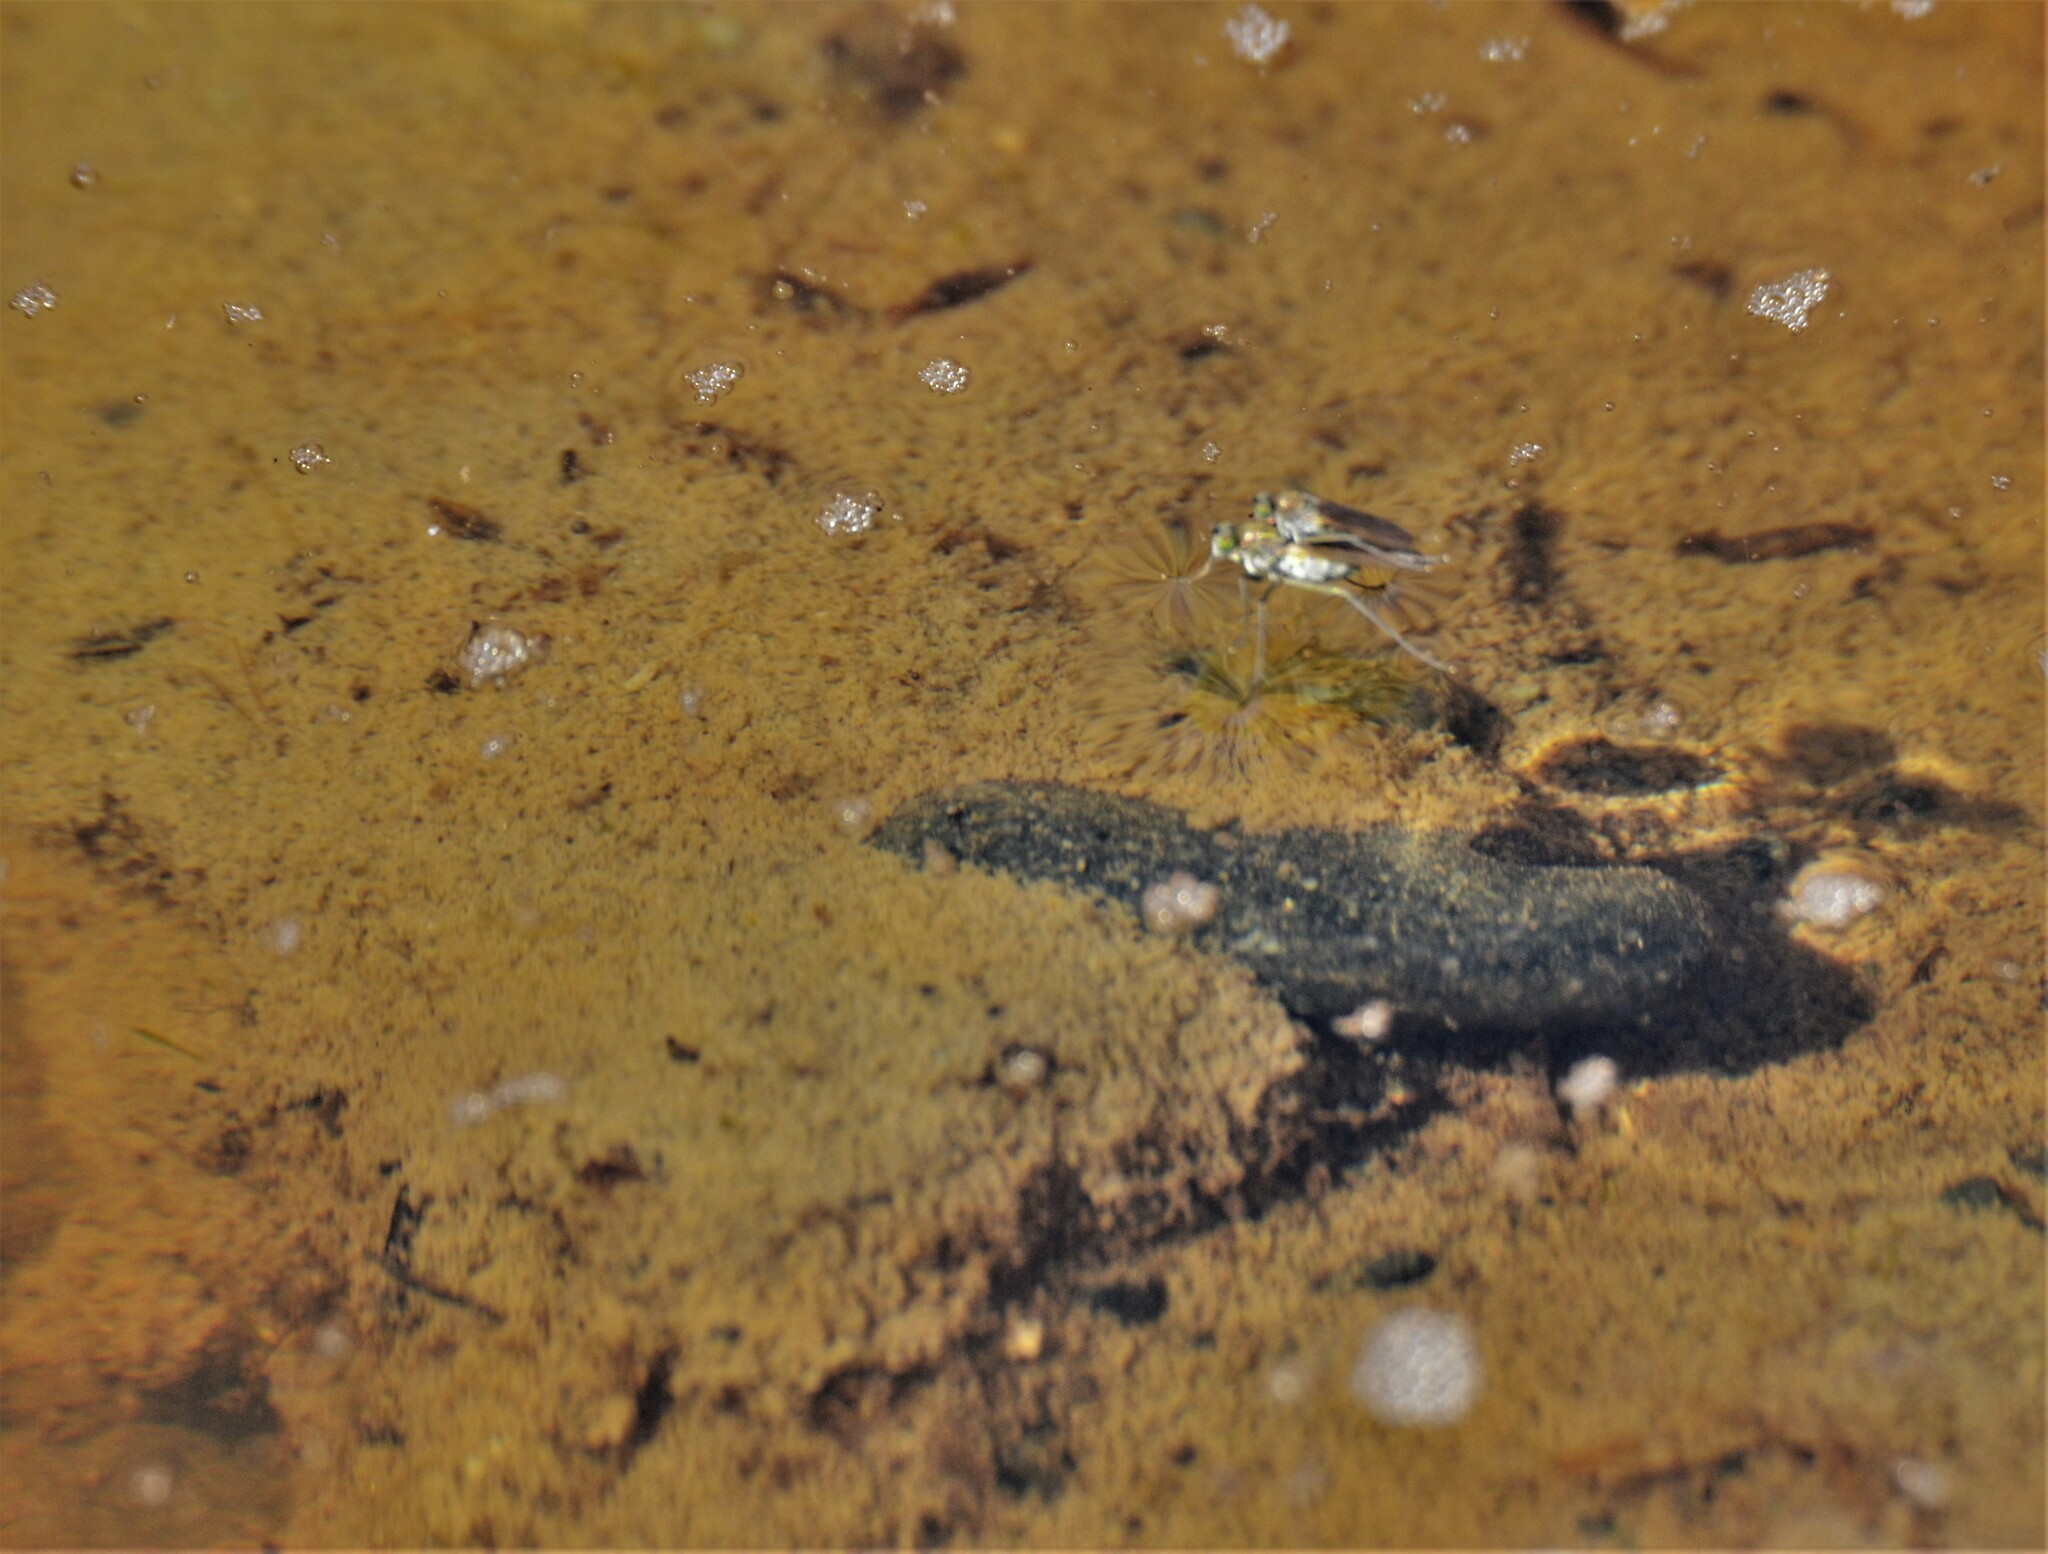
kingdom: Animalia
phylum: Arthropoda
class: Insecta
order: Diptera
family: Dolichopodidae
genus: Hydrophorus
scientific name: Hydrophorus praecox
